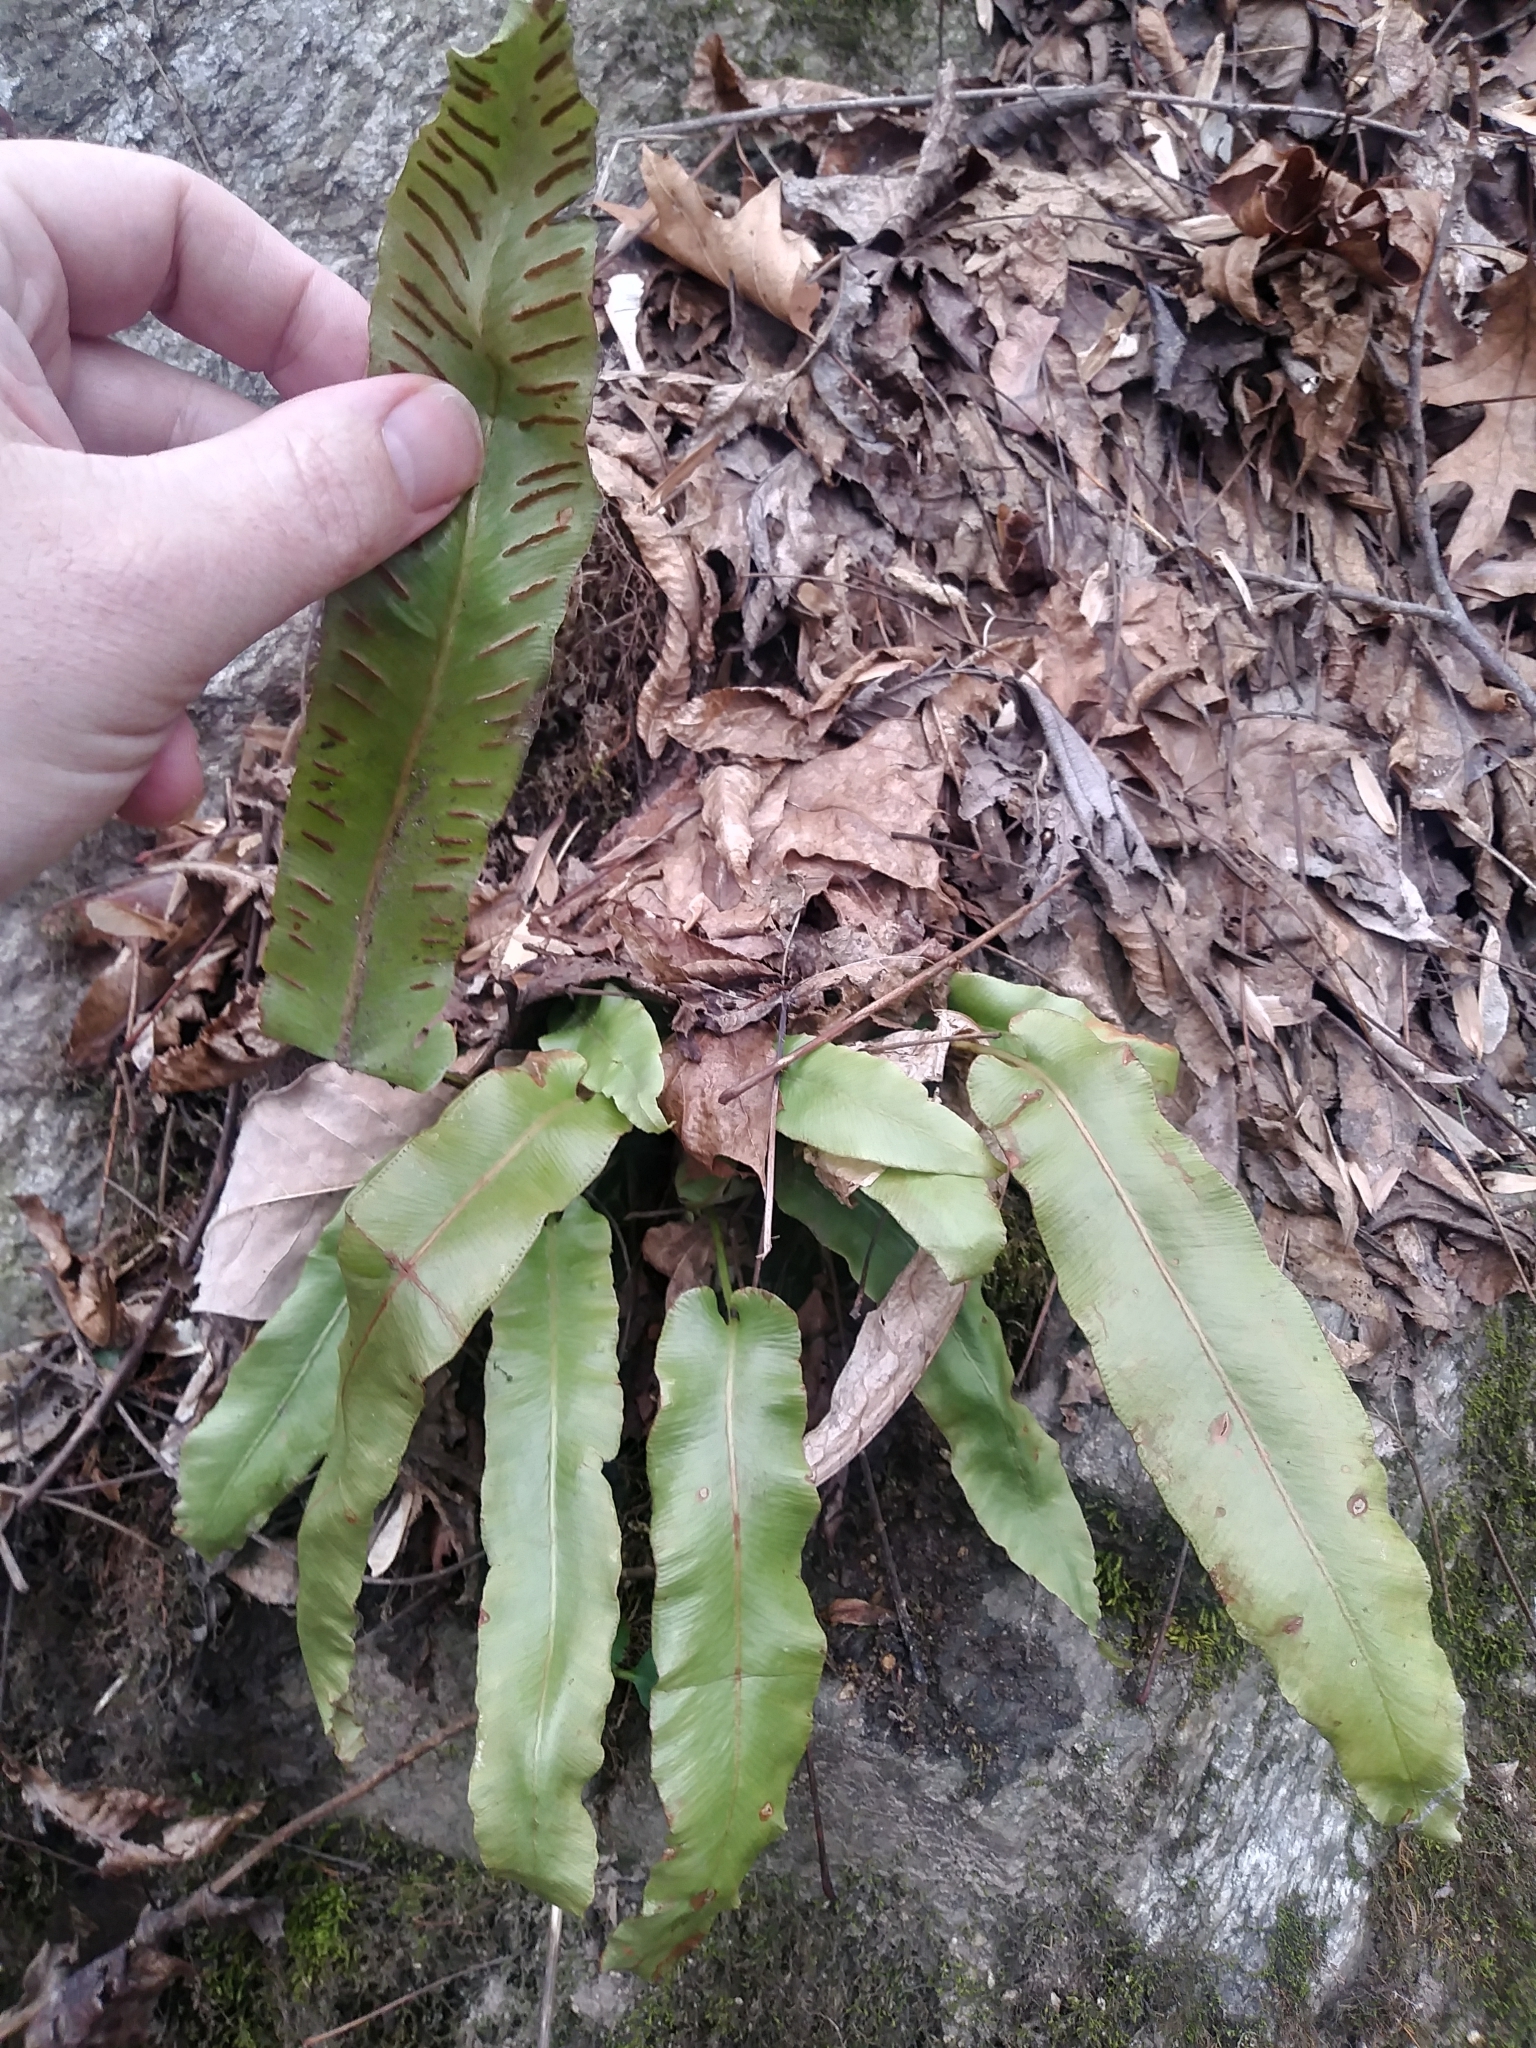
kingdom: Plantae
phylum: Tracheophyta
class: Polypodiopsida
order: Polypodiales
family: Aspleniaceae
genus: Asplenium
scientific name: Asplenium scolopendrium
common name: Hart's-tongue fern
